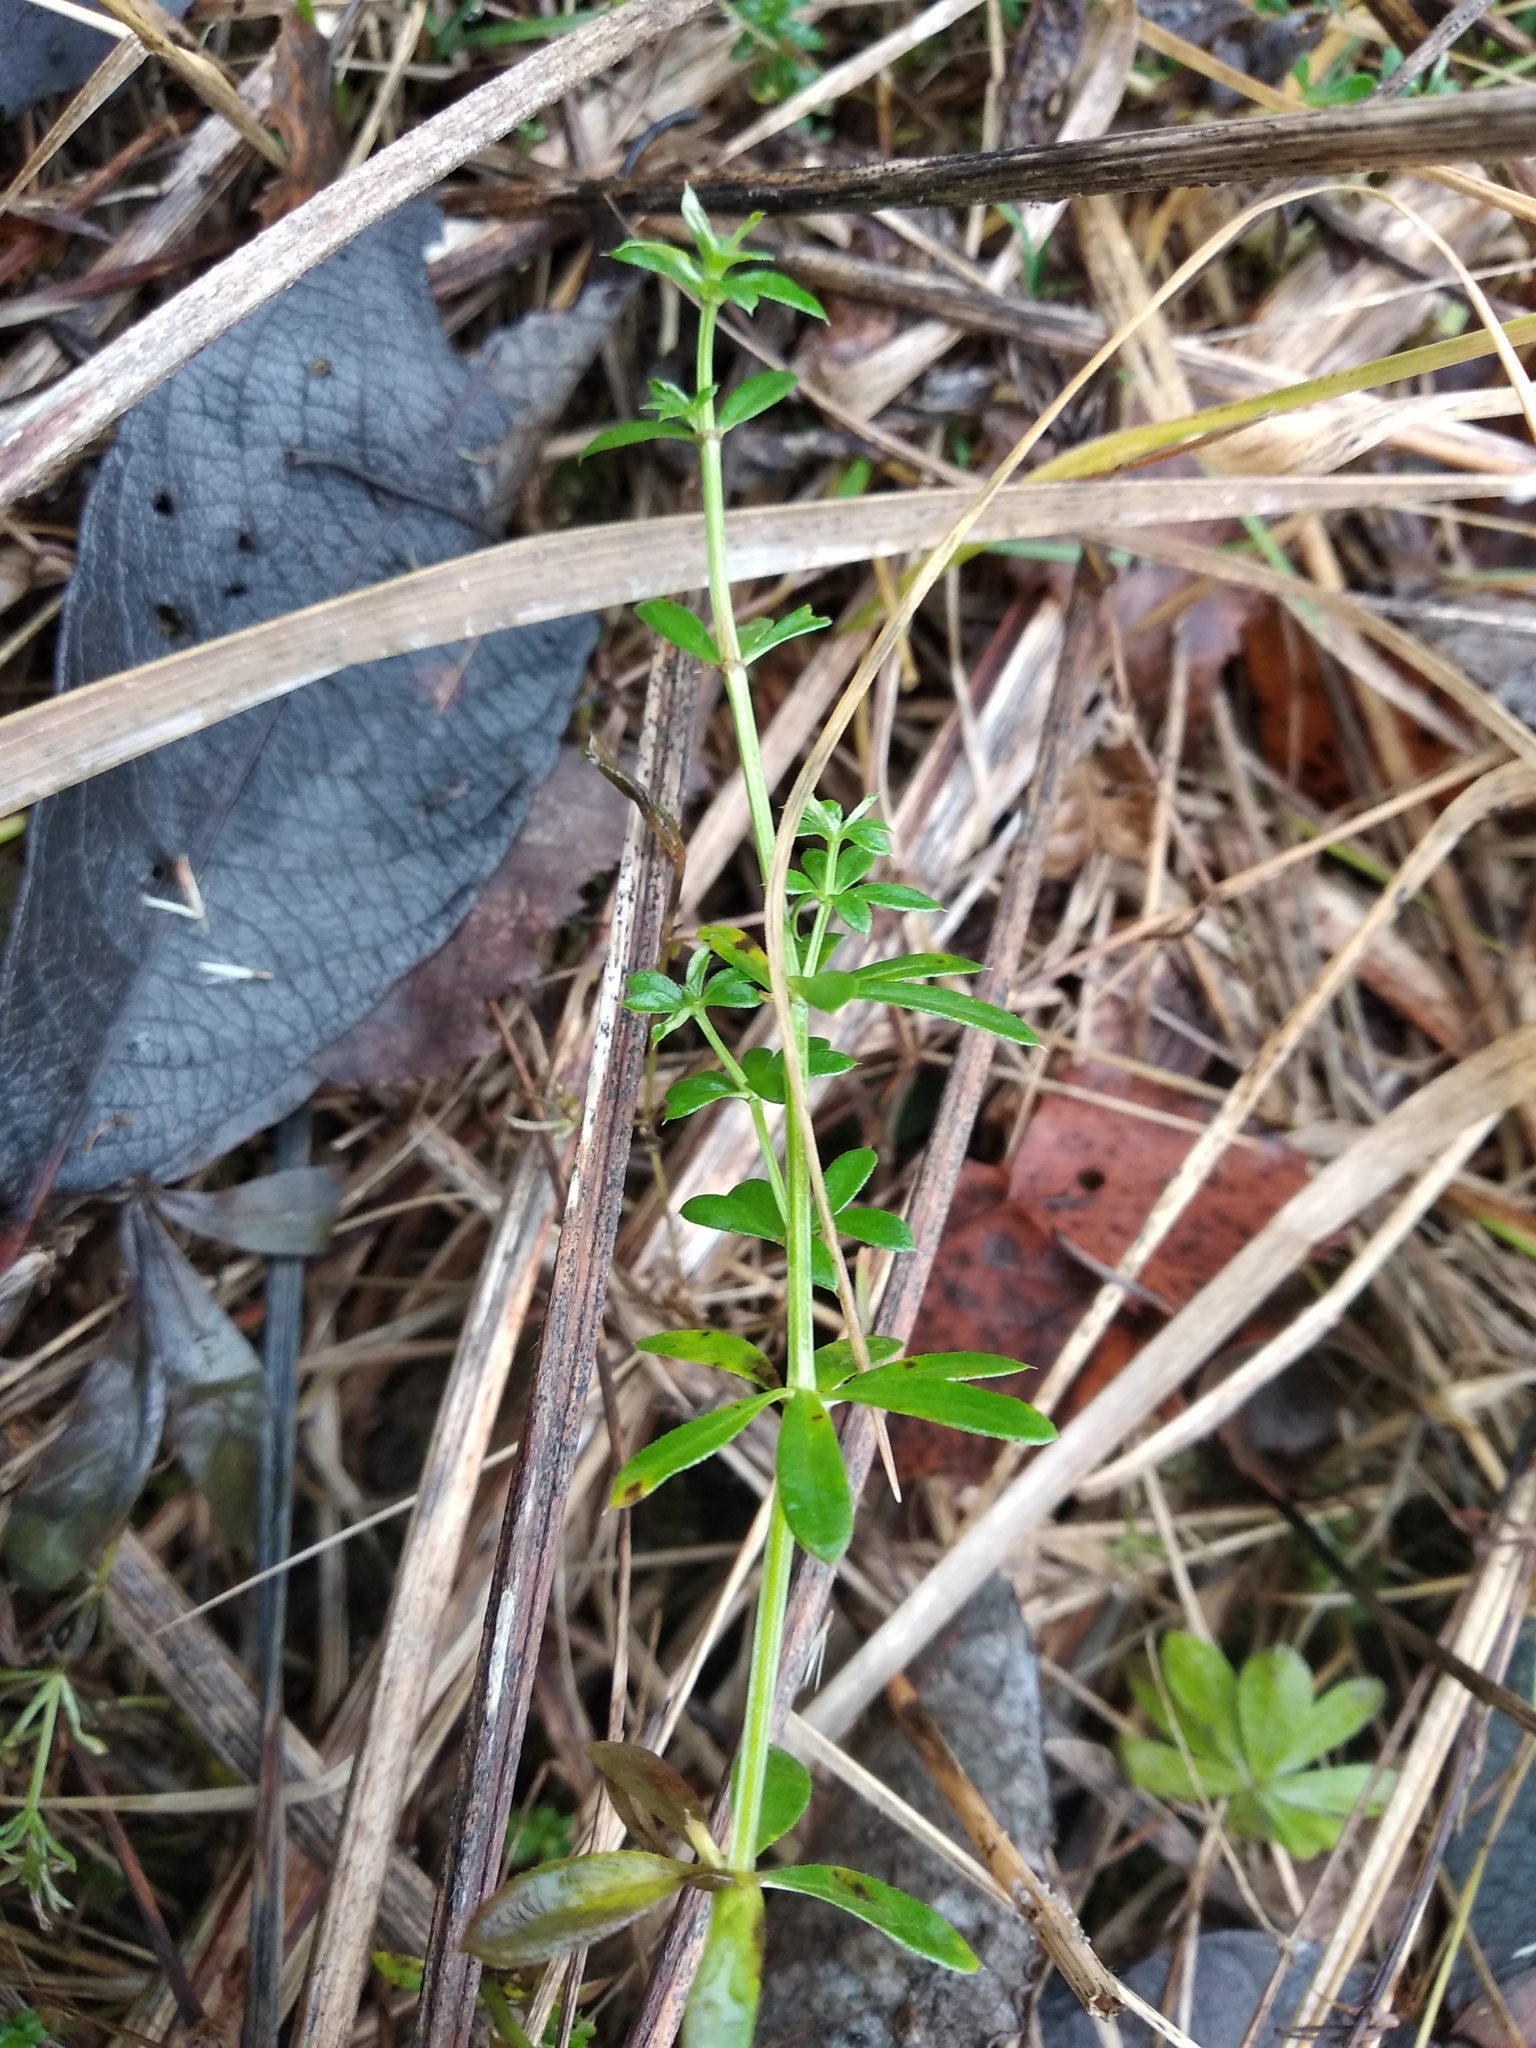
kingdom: Plantae
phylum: Tracheophyta
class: Magnoliopsida
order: Gentianales
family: Rubiaceae
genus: Galium
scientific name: Galium mollugo
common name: Hedge bedstraw
